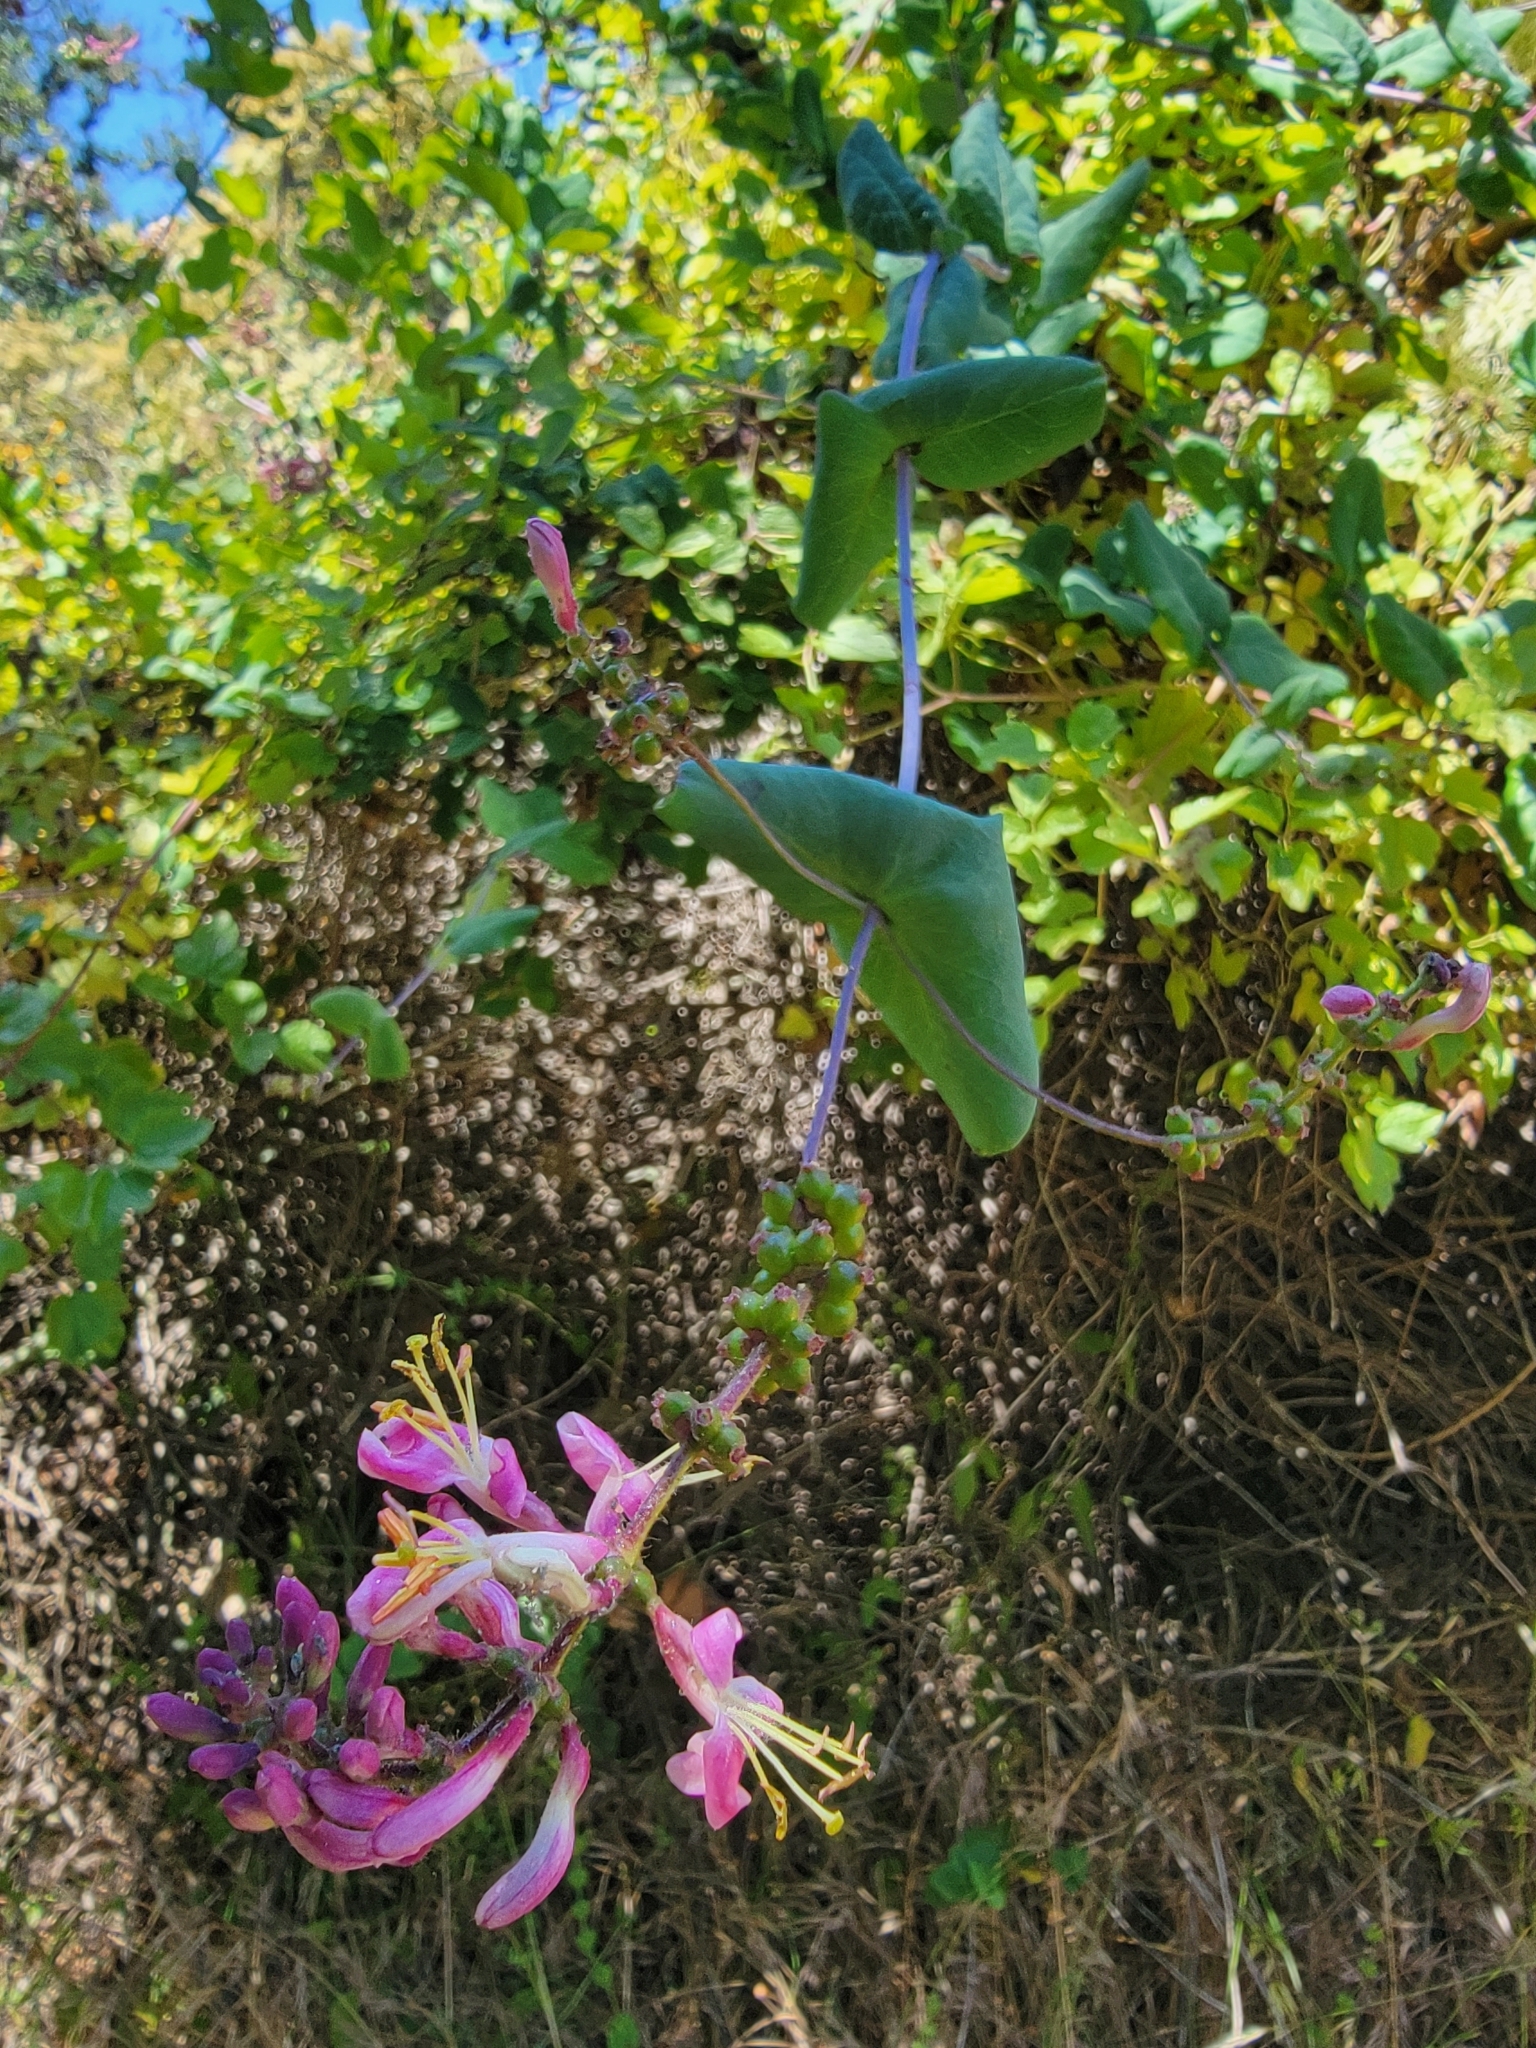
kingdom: Plantae
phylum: Tracheophyta
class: Magnoliopsida
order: Dipsacales
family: Caprifoliaceae
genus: Lonicera
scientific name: Lonicera hispidula
